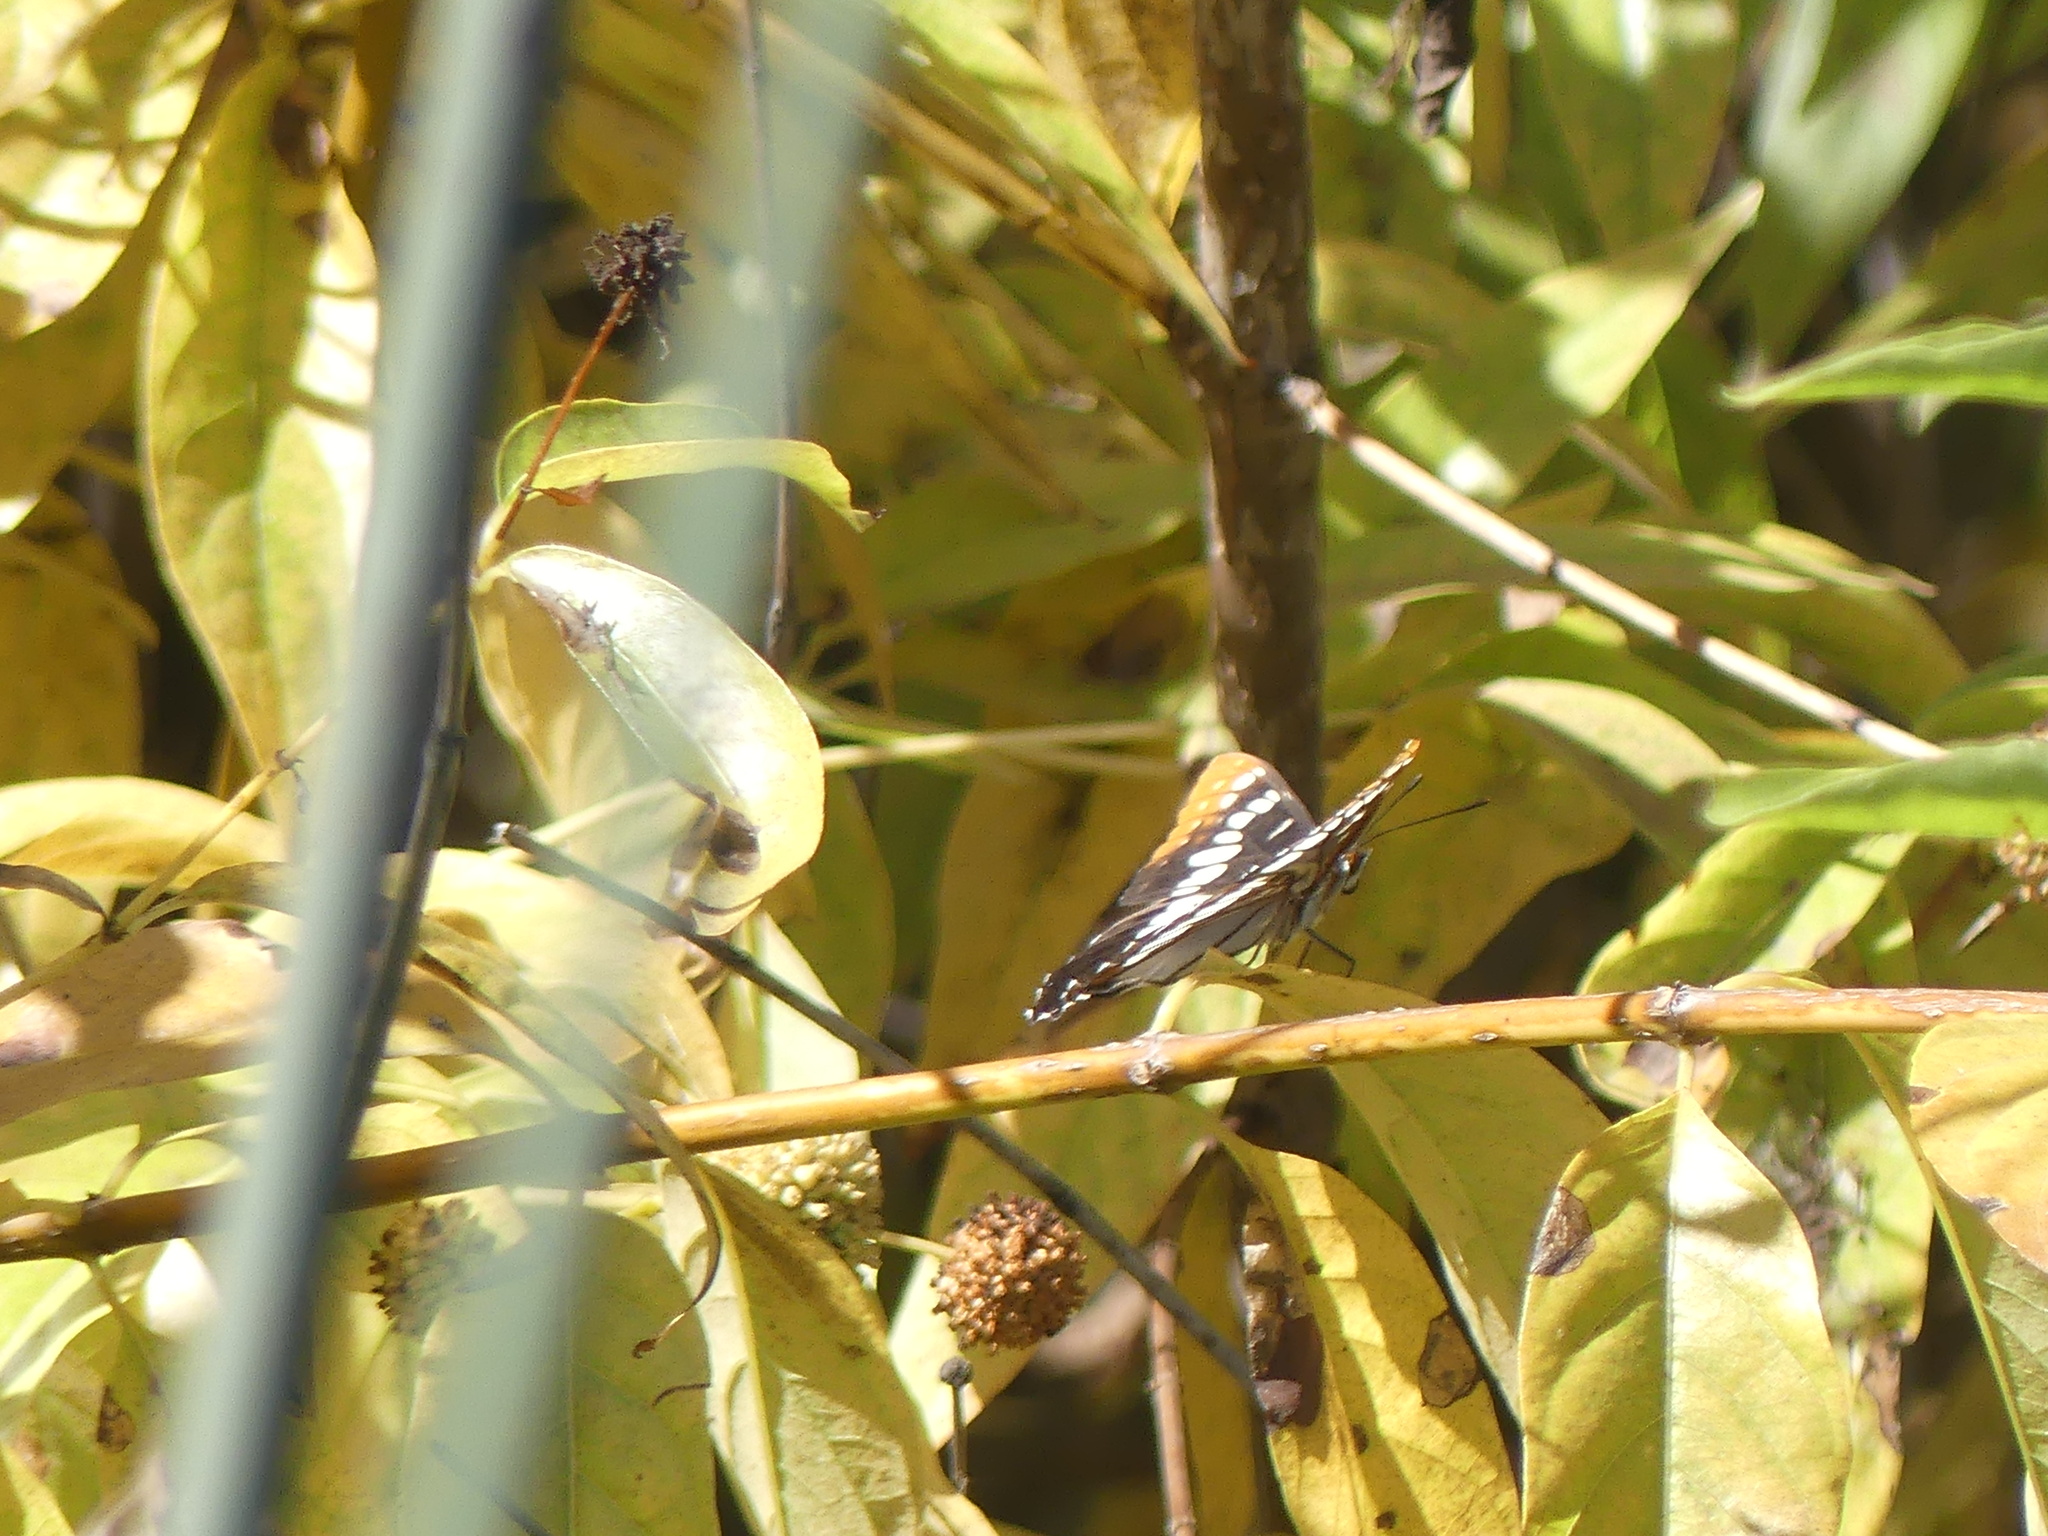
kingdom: Animalia
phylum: Arthropoda
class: Insecta
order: Lepidoptera
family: Nymphalidae
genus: Limenitis
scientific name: Limenitis lorquini
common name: Lorquin's admiral
